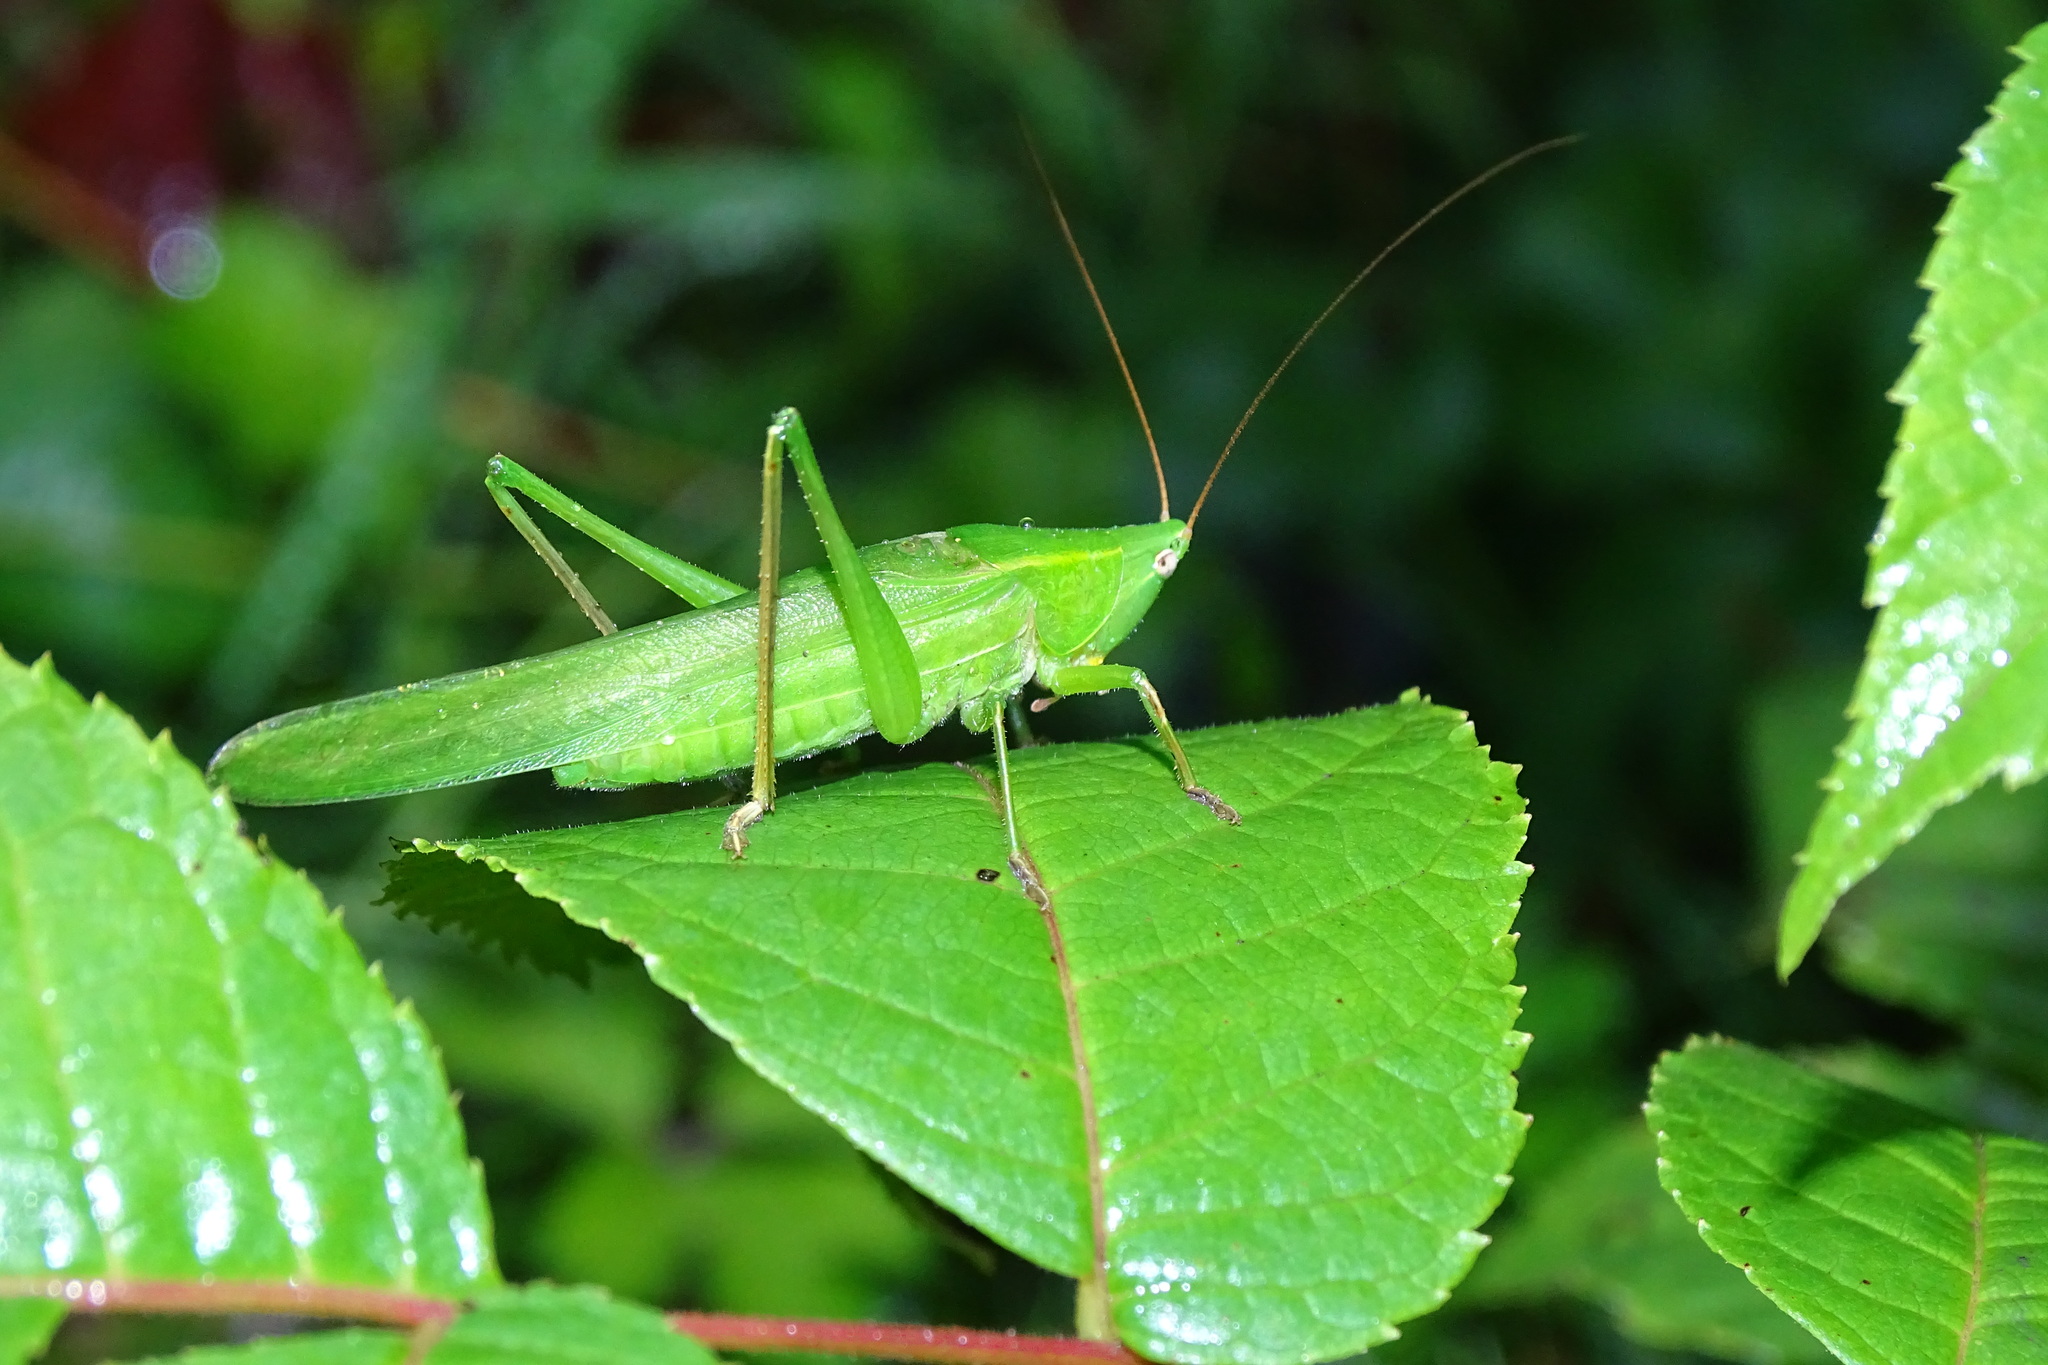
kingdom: Animalia
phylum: Arthropoda
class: Insecta
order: Orthoptera
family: Tettigoniidae
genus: Ruspolia
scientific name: Ruspolia nitidula
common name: Large conehead
